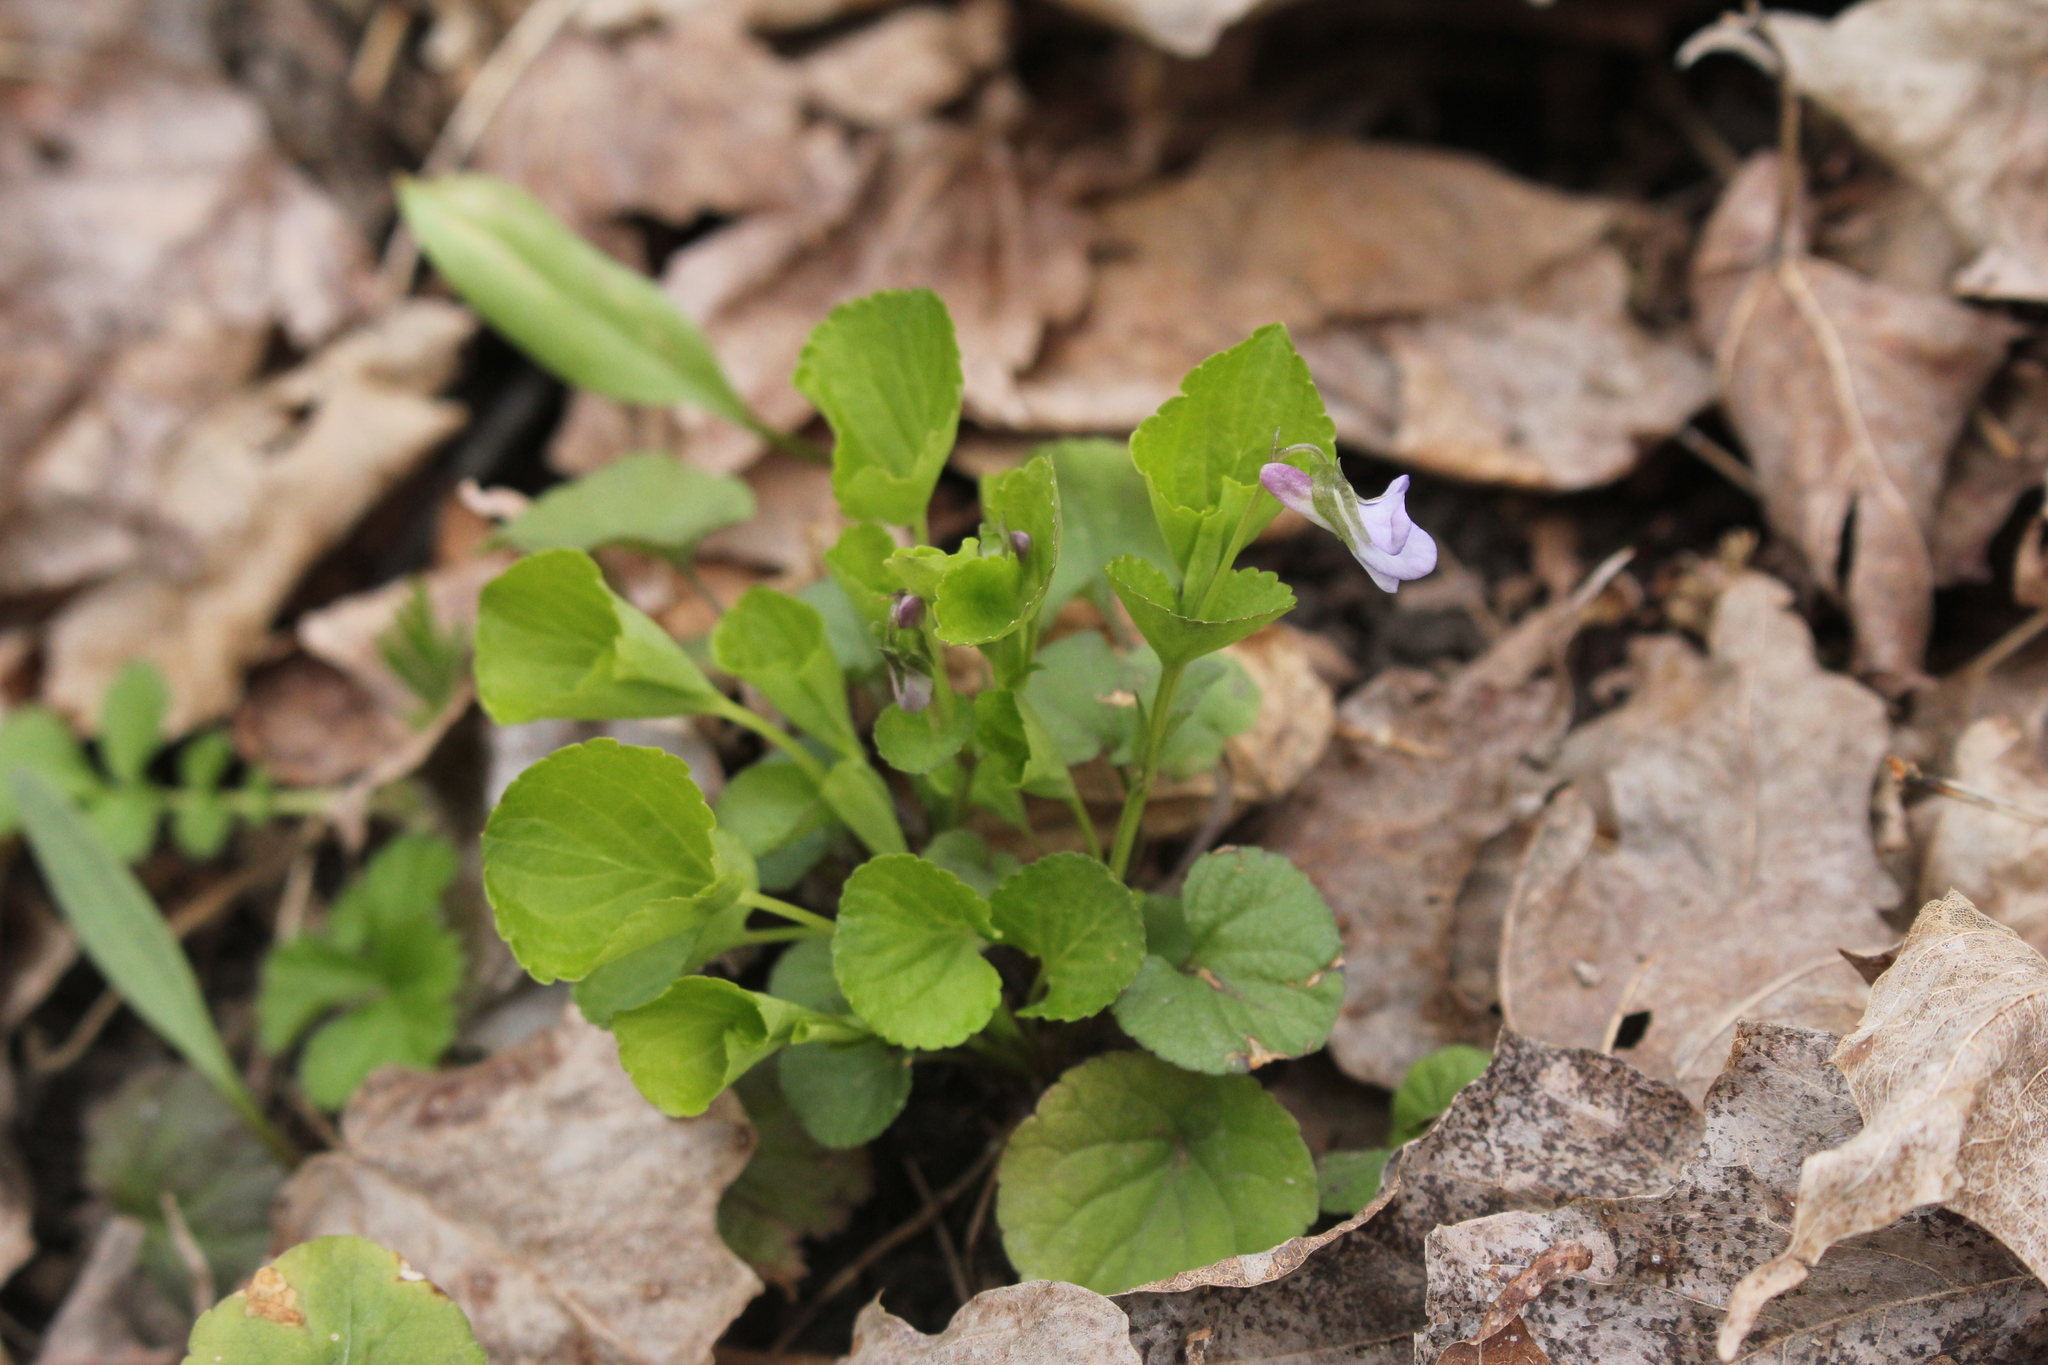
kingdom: Plantae
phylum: Tracheophyta
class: Magnoliopsida
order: Malpighiales
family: Violaceae
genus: Viola
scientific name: Viola labradorica
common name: Labrador violet
